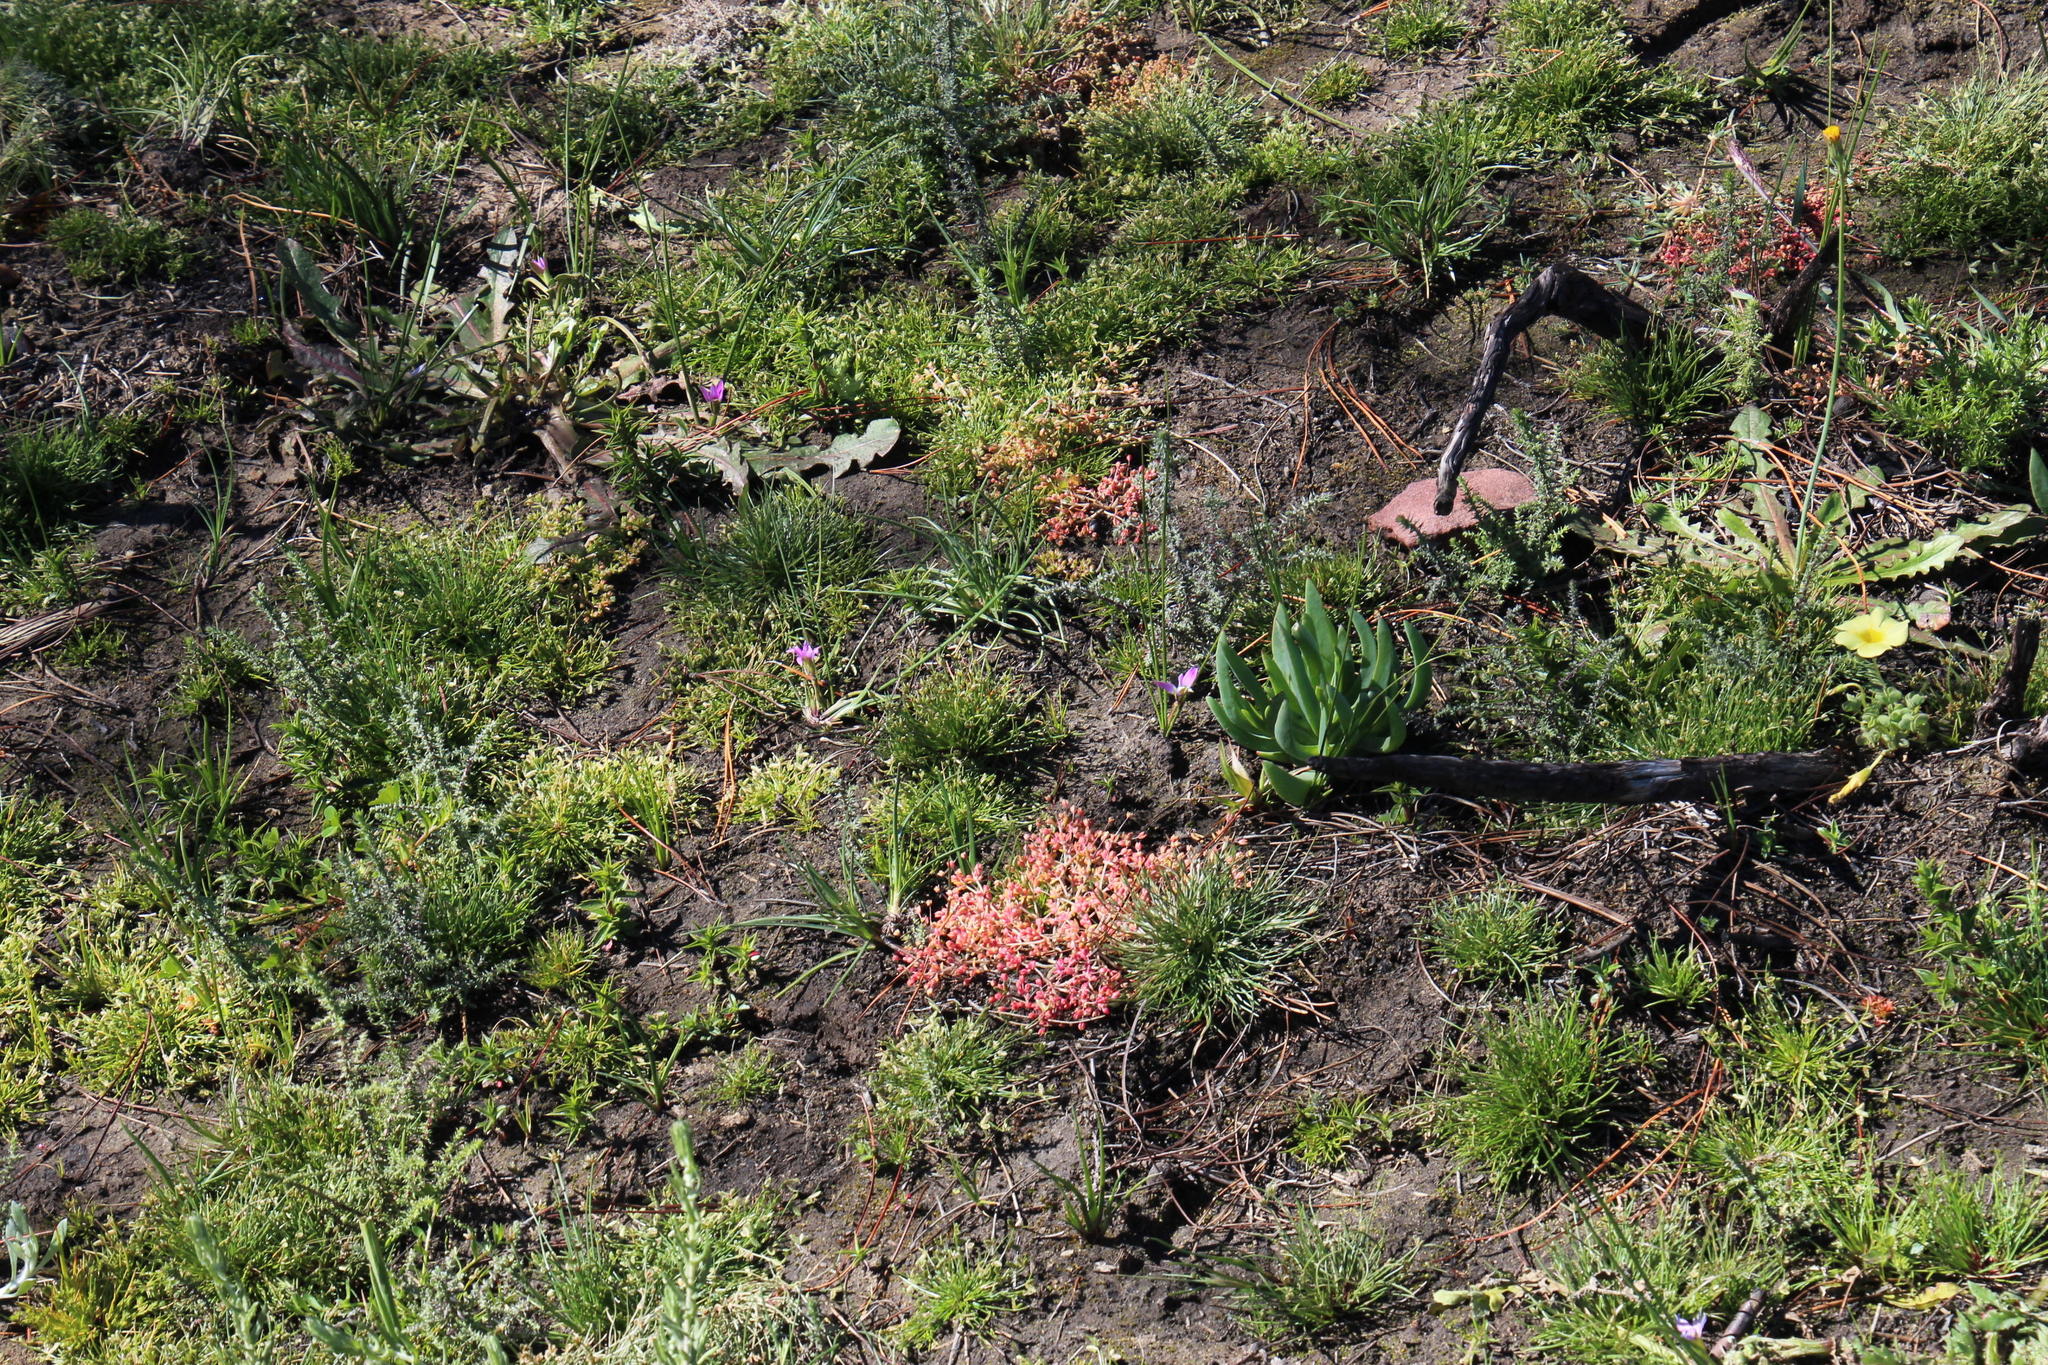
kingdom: Plantae
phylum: Tracheophyta
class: Magnoliopsida
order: Saxifragales
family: Crassulaceae
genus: Crassula
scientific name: Crassula decumbens
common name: Scilly pigmyweed
